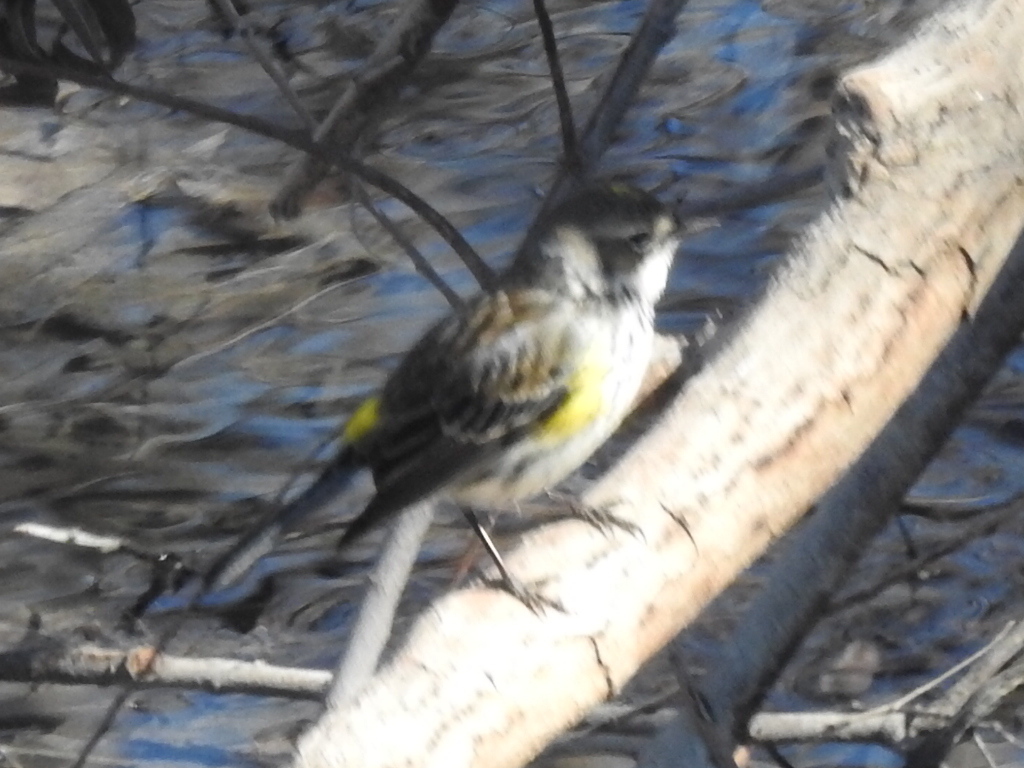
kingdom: Animalia
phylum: Chordata
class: Aves
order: Passeriformes
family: Parulidae
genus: Setophaga
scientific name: Setophaga coronata
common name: Myrtle warbler
